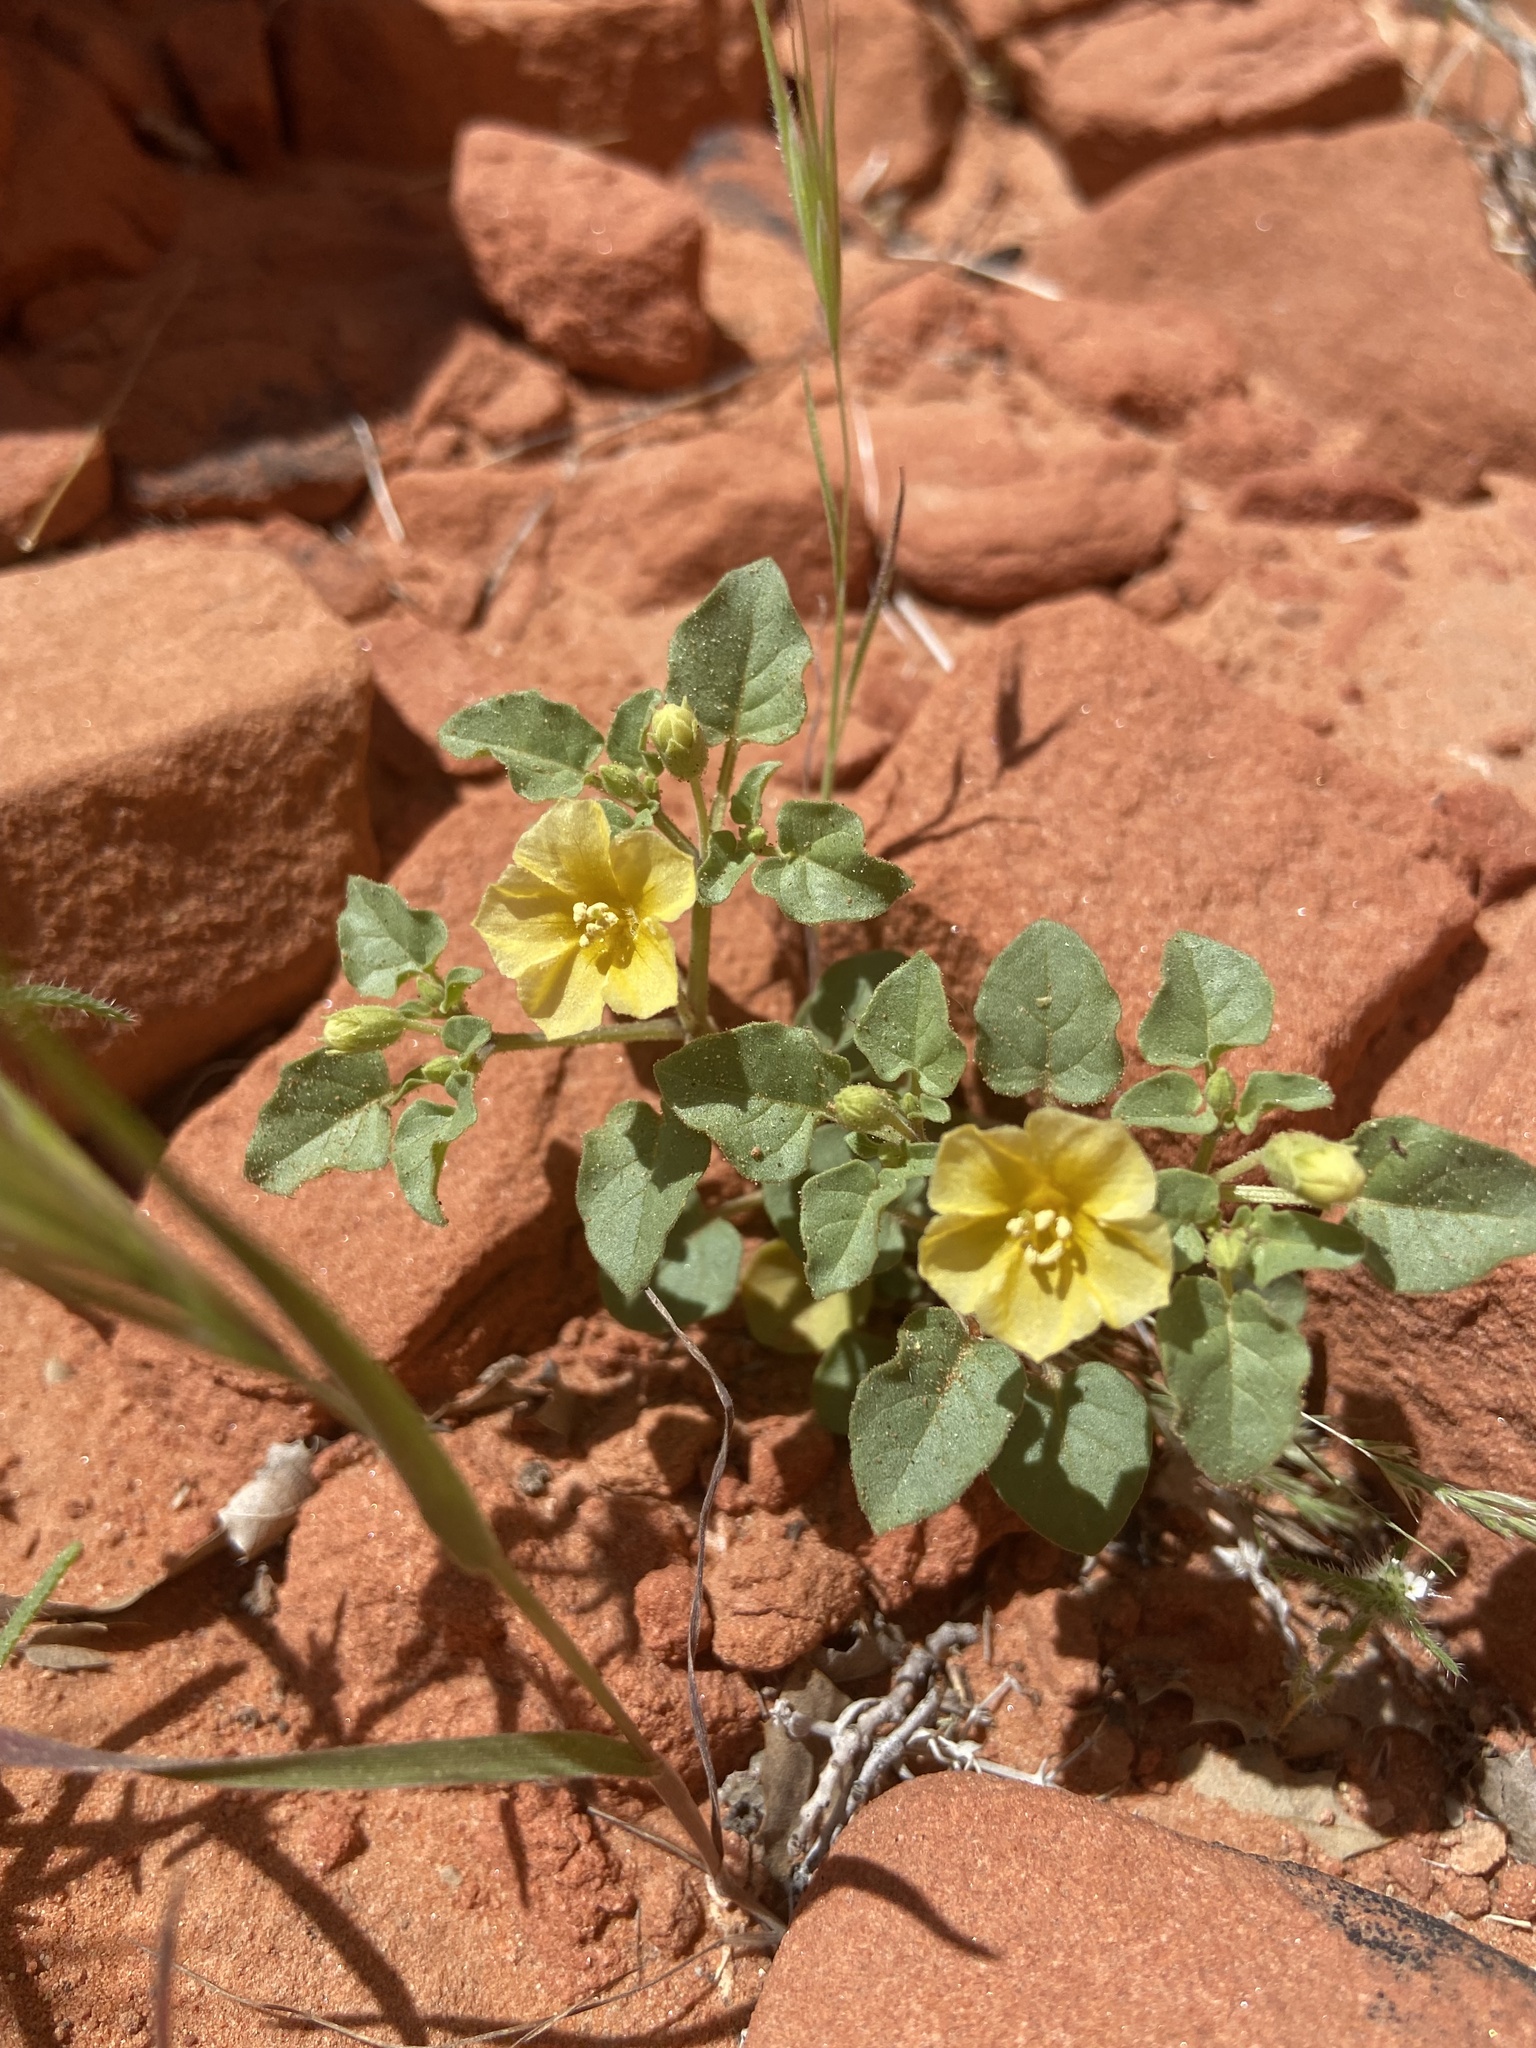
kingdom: Plantae
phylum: Tracheophyta
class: Magnoliopsida
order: Solanales
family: Solanaceae
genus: Physalis
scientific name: Physalis crassifolia
